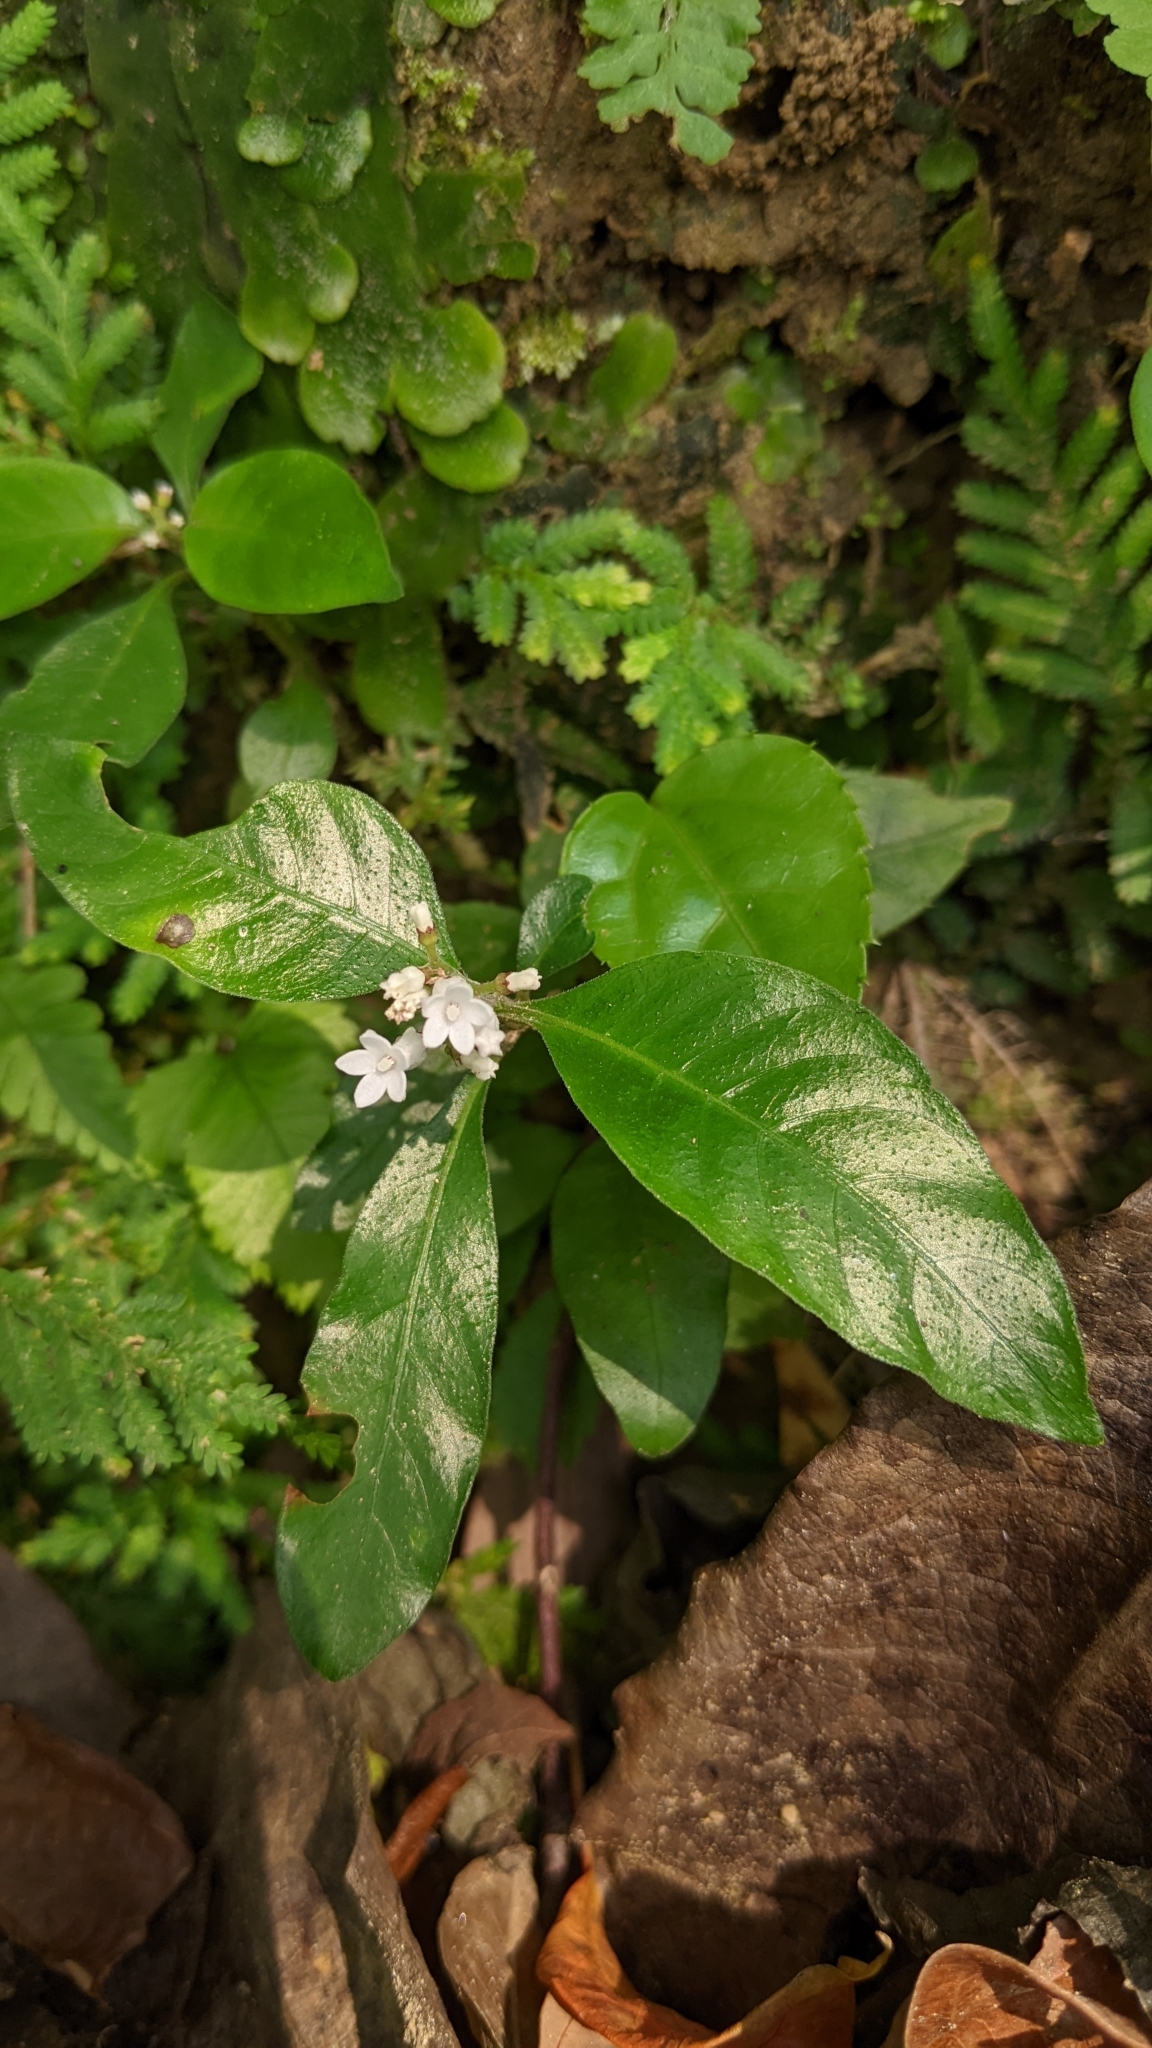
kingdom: Plantae
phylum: Tracheophyta
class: Magnoliopsida
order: Gentianales
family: Rubiaceae
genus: Ophiorrhiza
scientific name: Ophiorrhiza pumila
